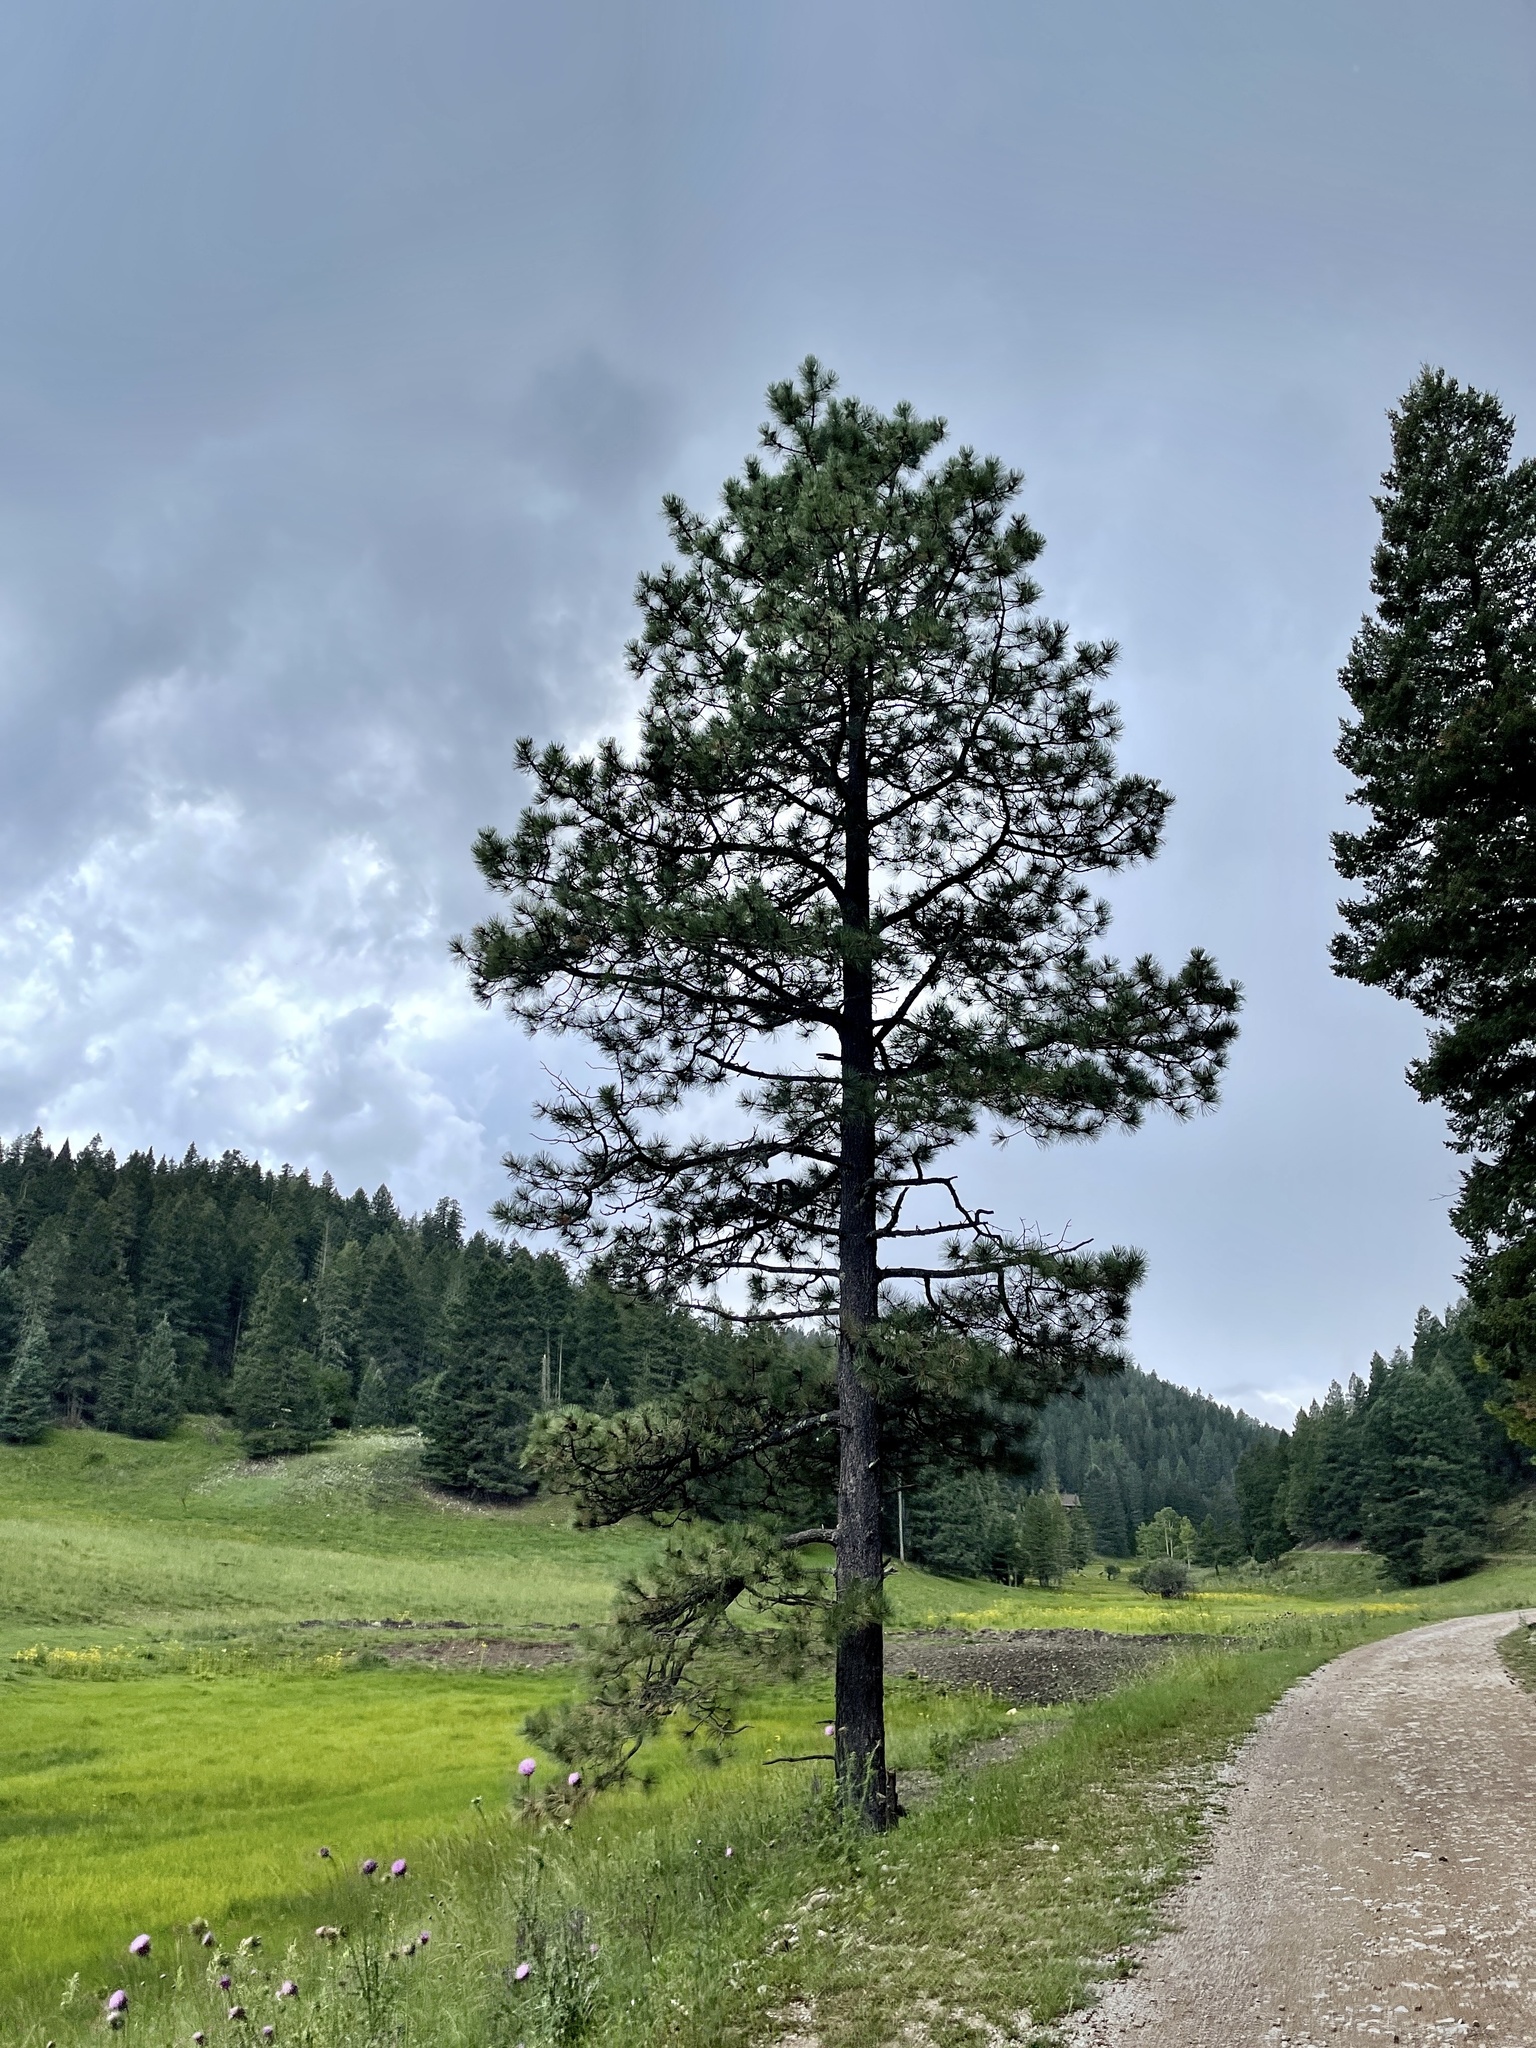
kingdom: Plantae
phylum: Tracheophyta
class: Pinopsida
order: Pinales
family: Pinaceae
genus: Pinus
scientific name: Pinus ponderosa
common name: Western yellow-pine
